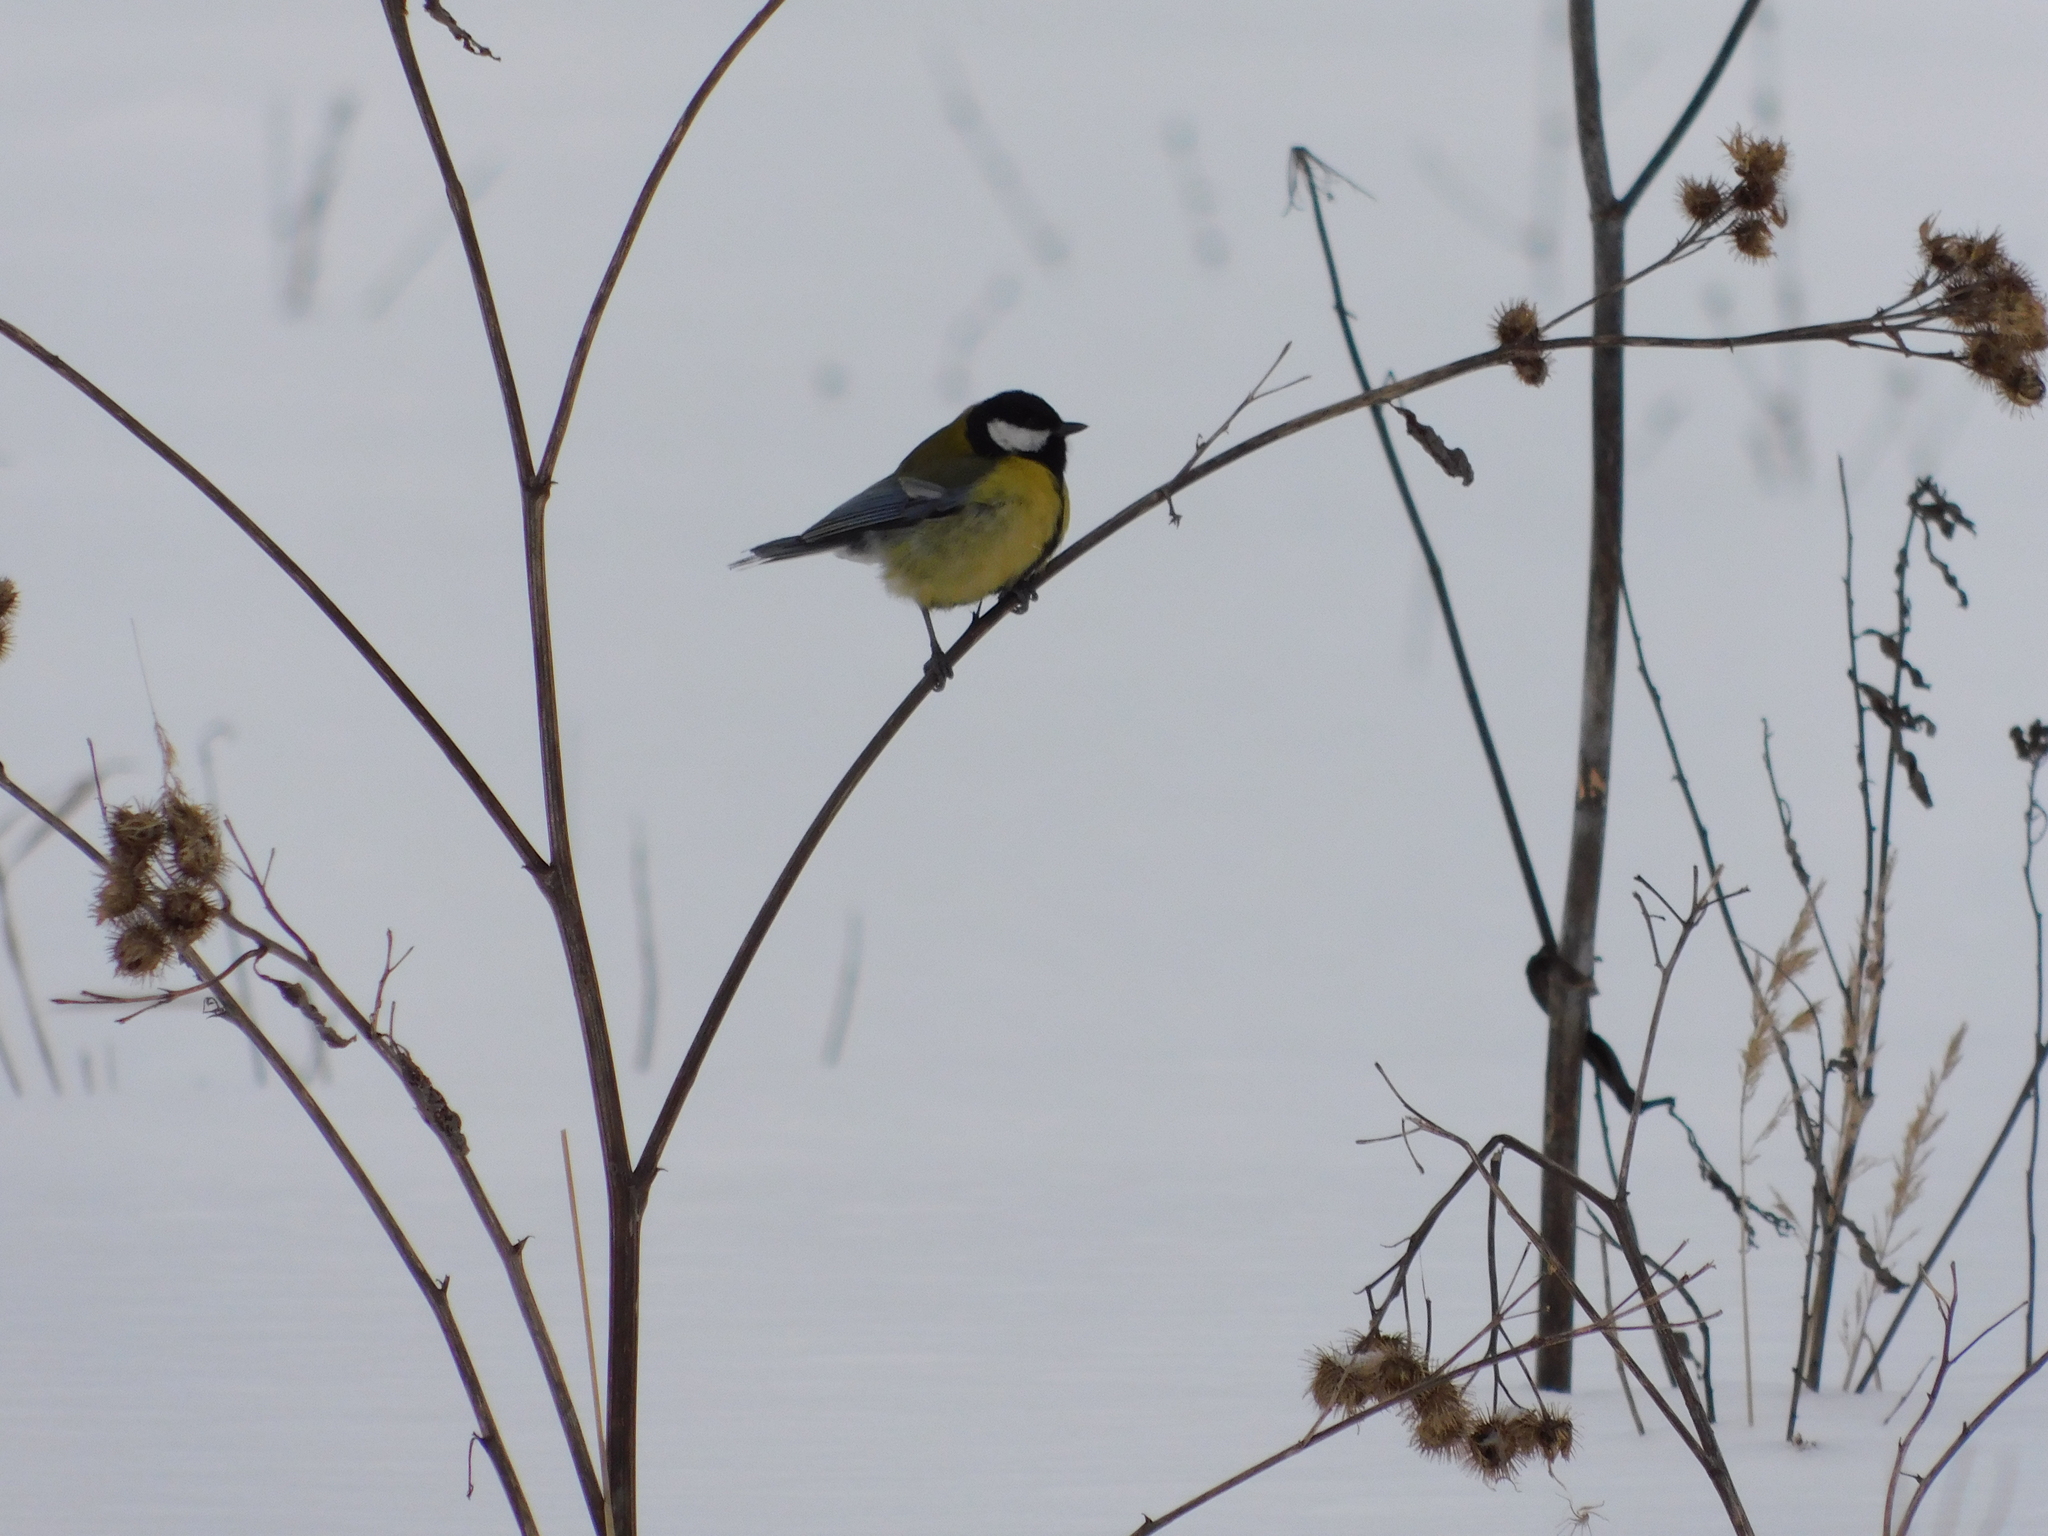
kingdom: Animalia
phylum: Chordata
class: Aves
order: Passeriformes
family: Paridae
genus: Parus
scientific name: Parus major
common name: Great tit
